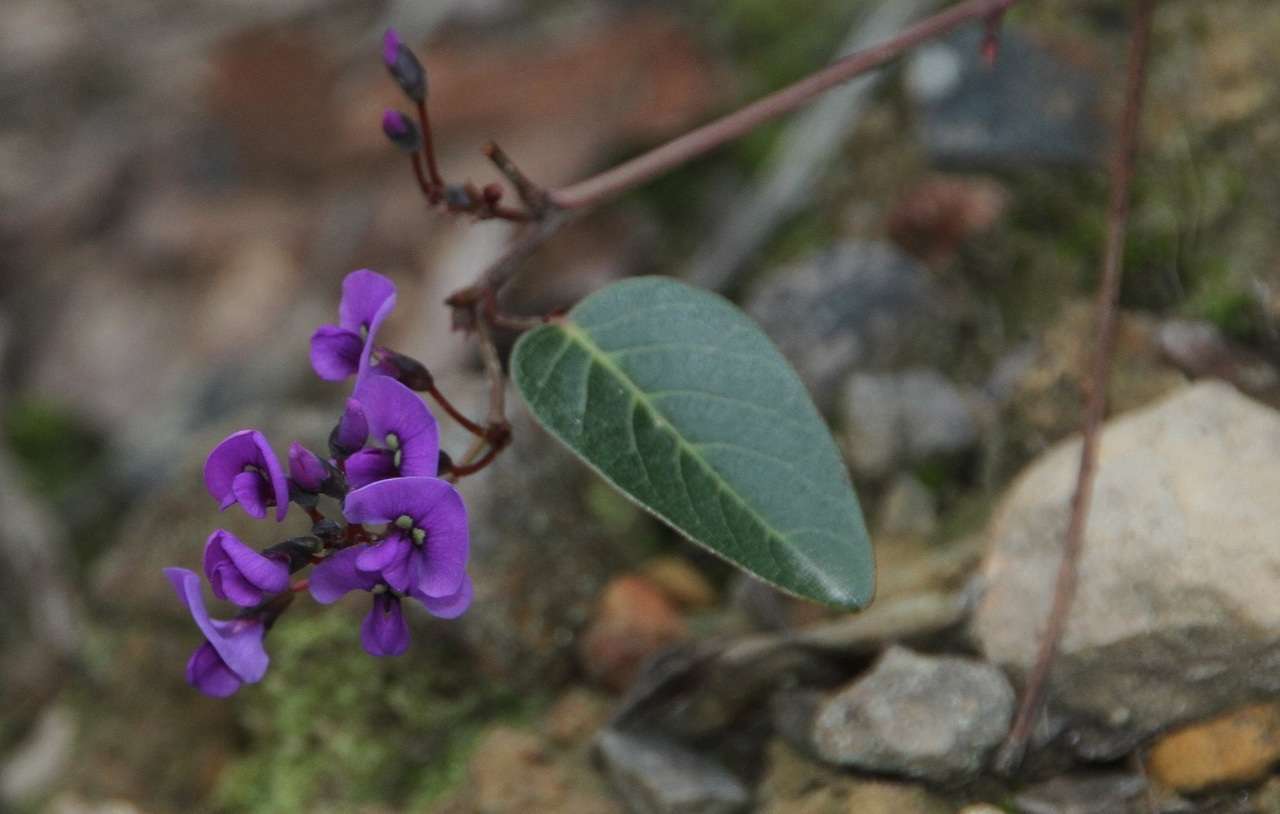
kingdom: Plantae
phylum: Tracheophyta
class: Magnoliopsida
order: Fabales
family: Fabaceae
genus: Hardenbergia
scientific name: Hardenbergia violacea
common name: Coral-pea
